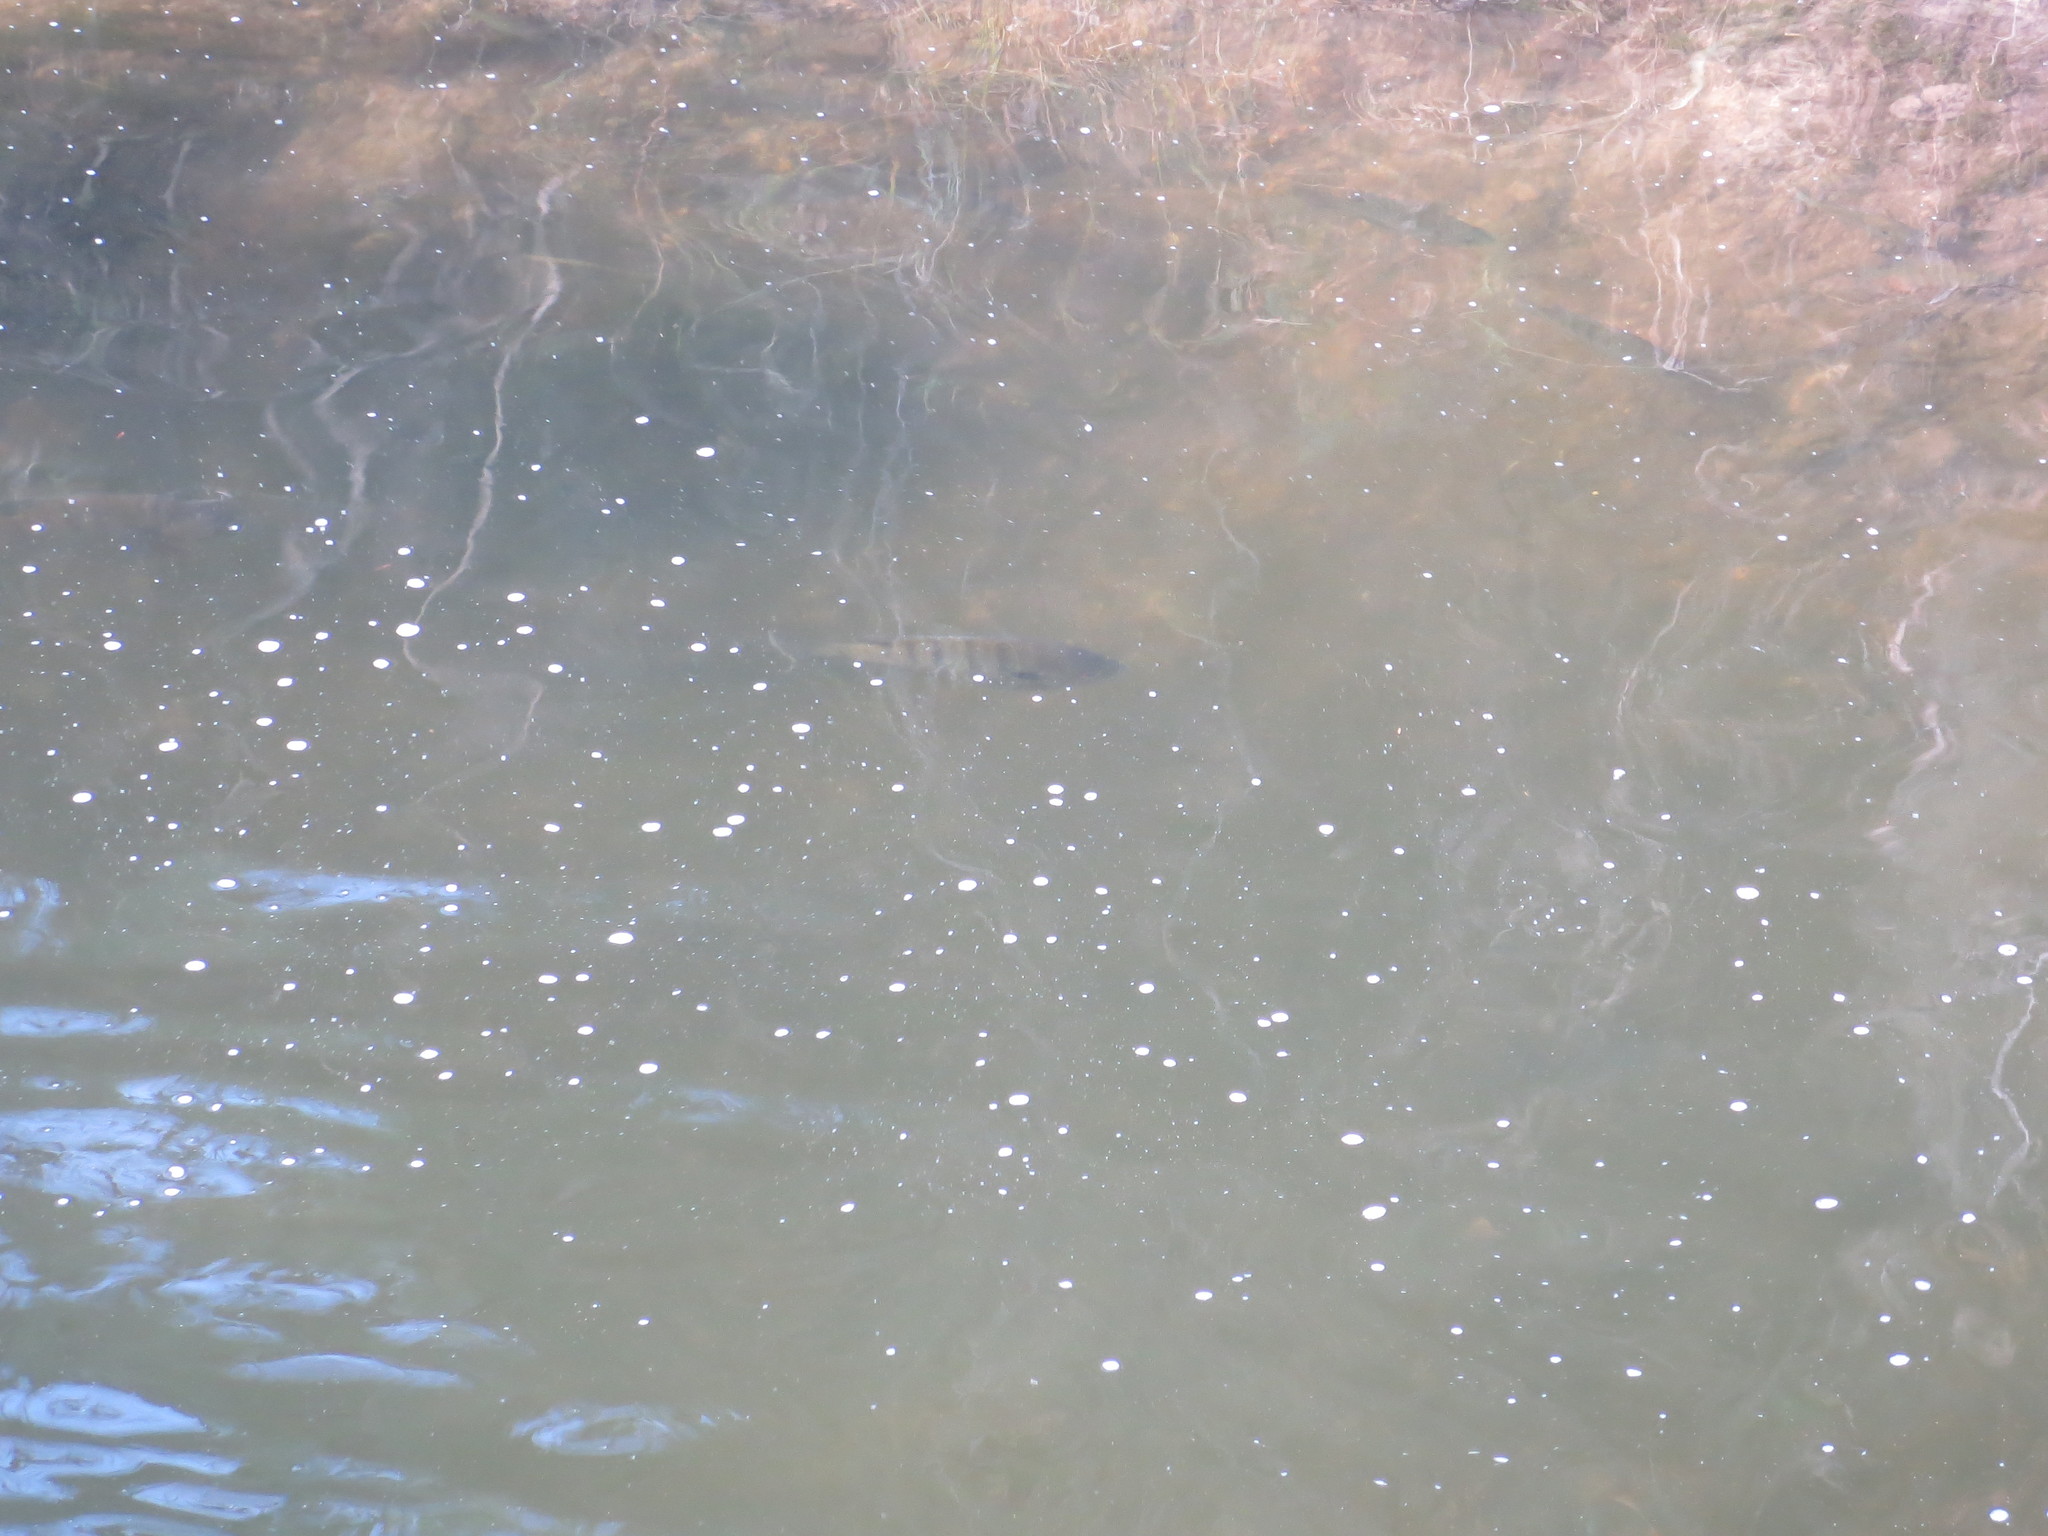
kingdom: Animalia
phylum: Chordata
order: Perciformes
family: Centrarchidae
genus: Lepomis
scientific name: Lepomis macrochirus
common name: Bluegill
